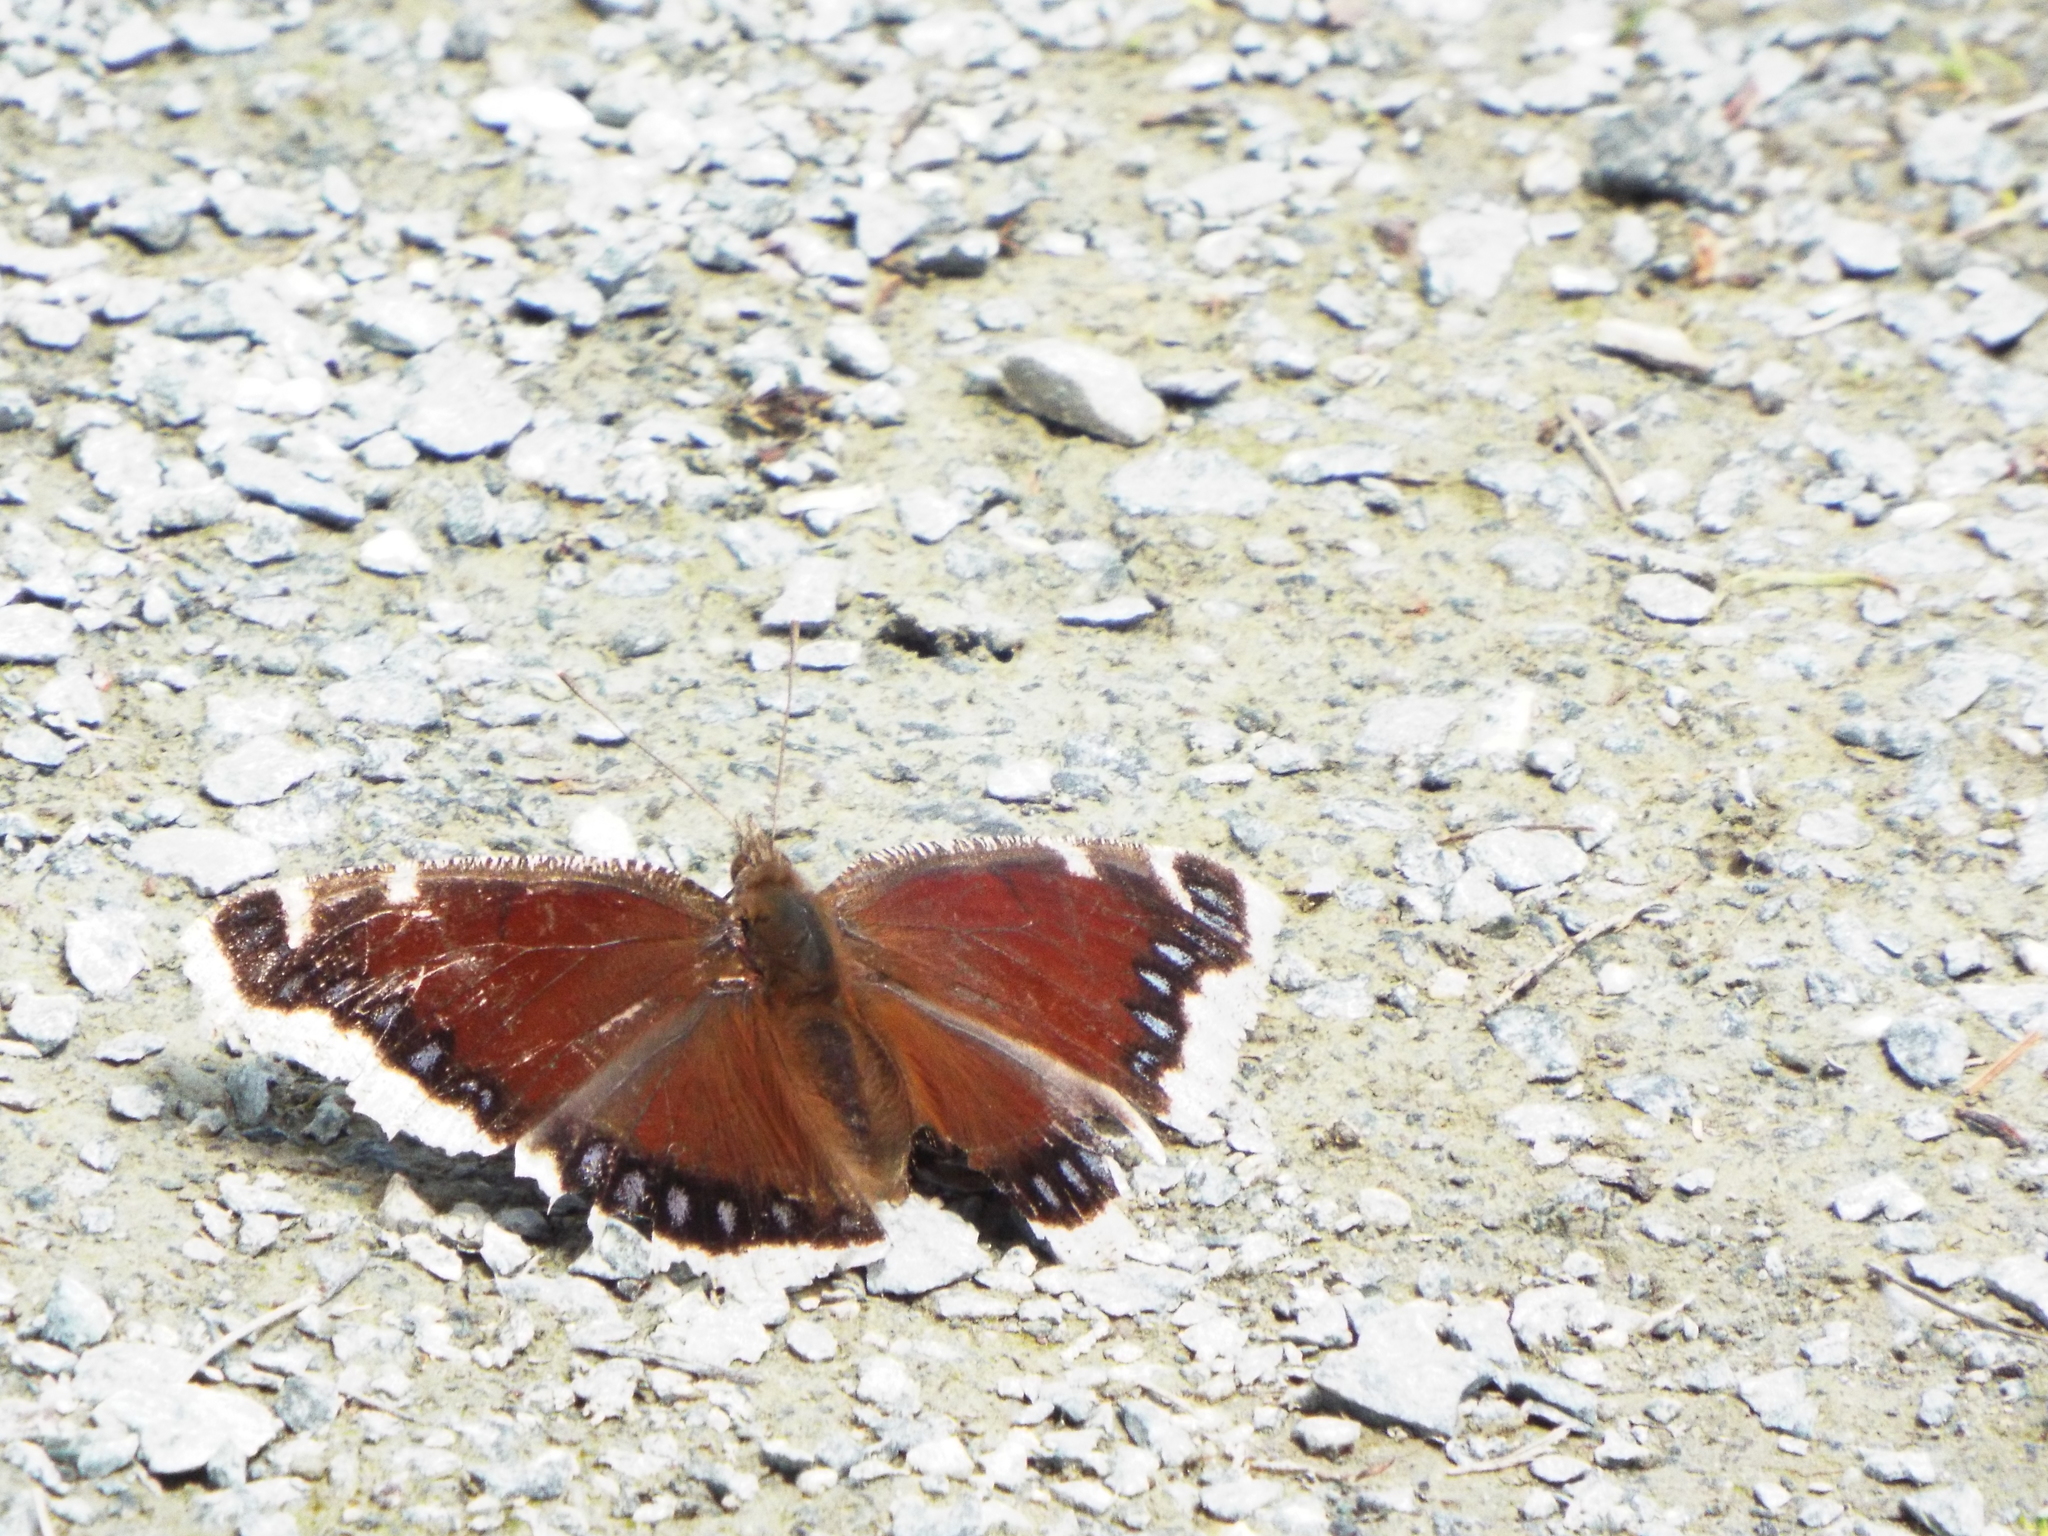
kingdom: Animalia
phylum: Arthropoda
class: Insecta
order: Lepidoptera
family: Nymphalidae
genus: Nymphalis
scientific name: Nymphalis antiopa
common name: Camberwell beauty
